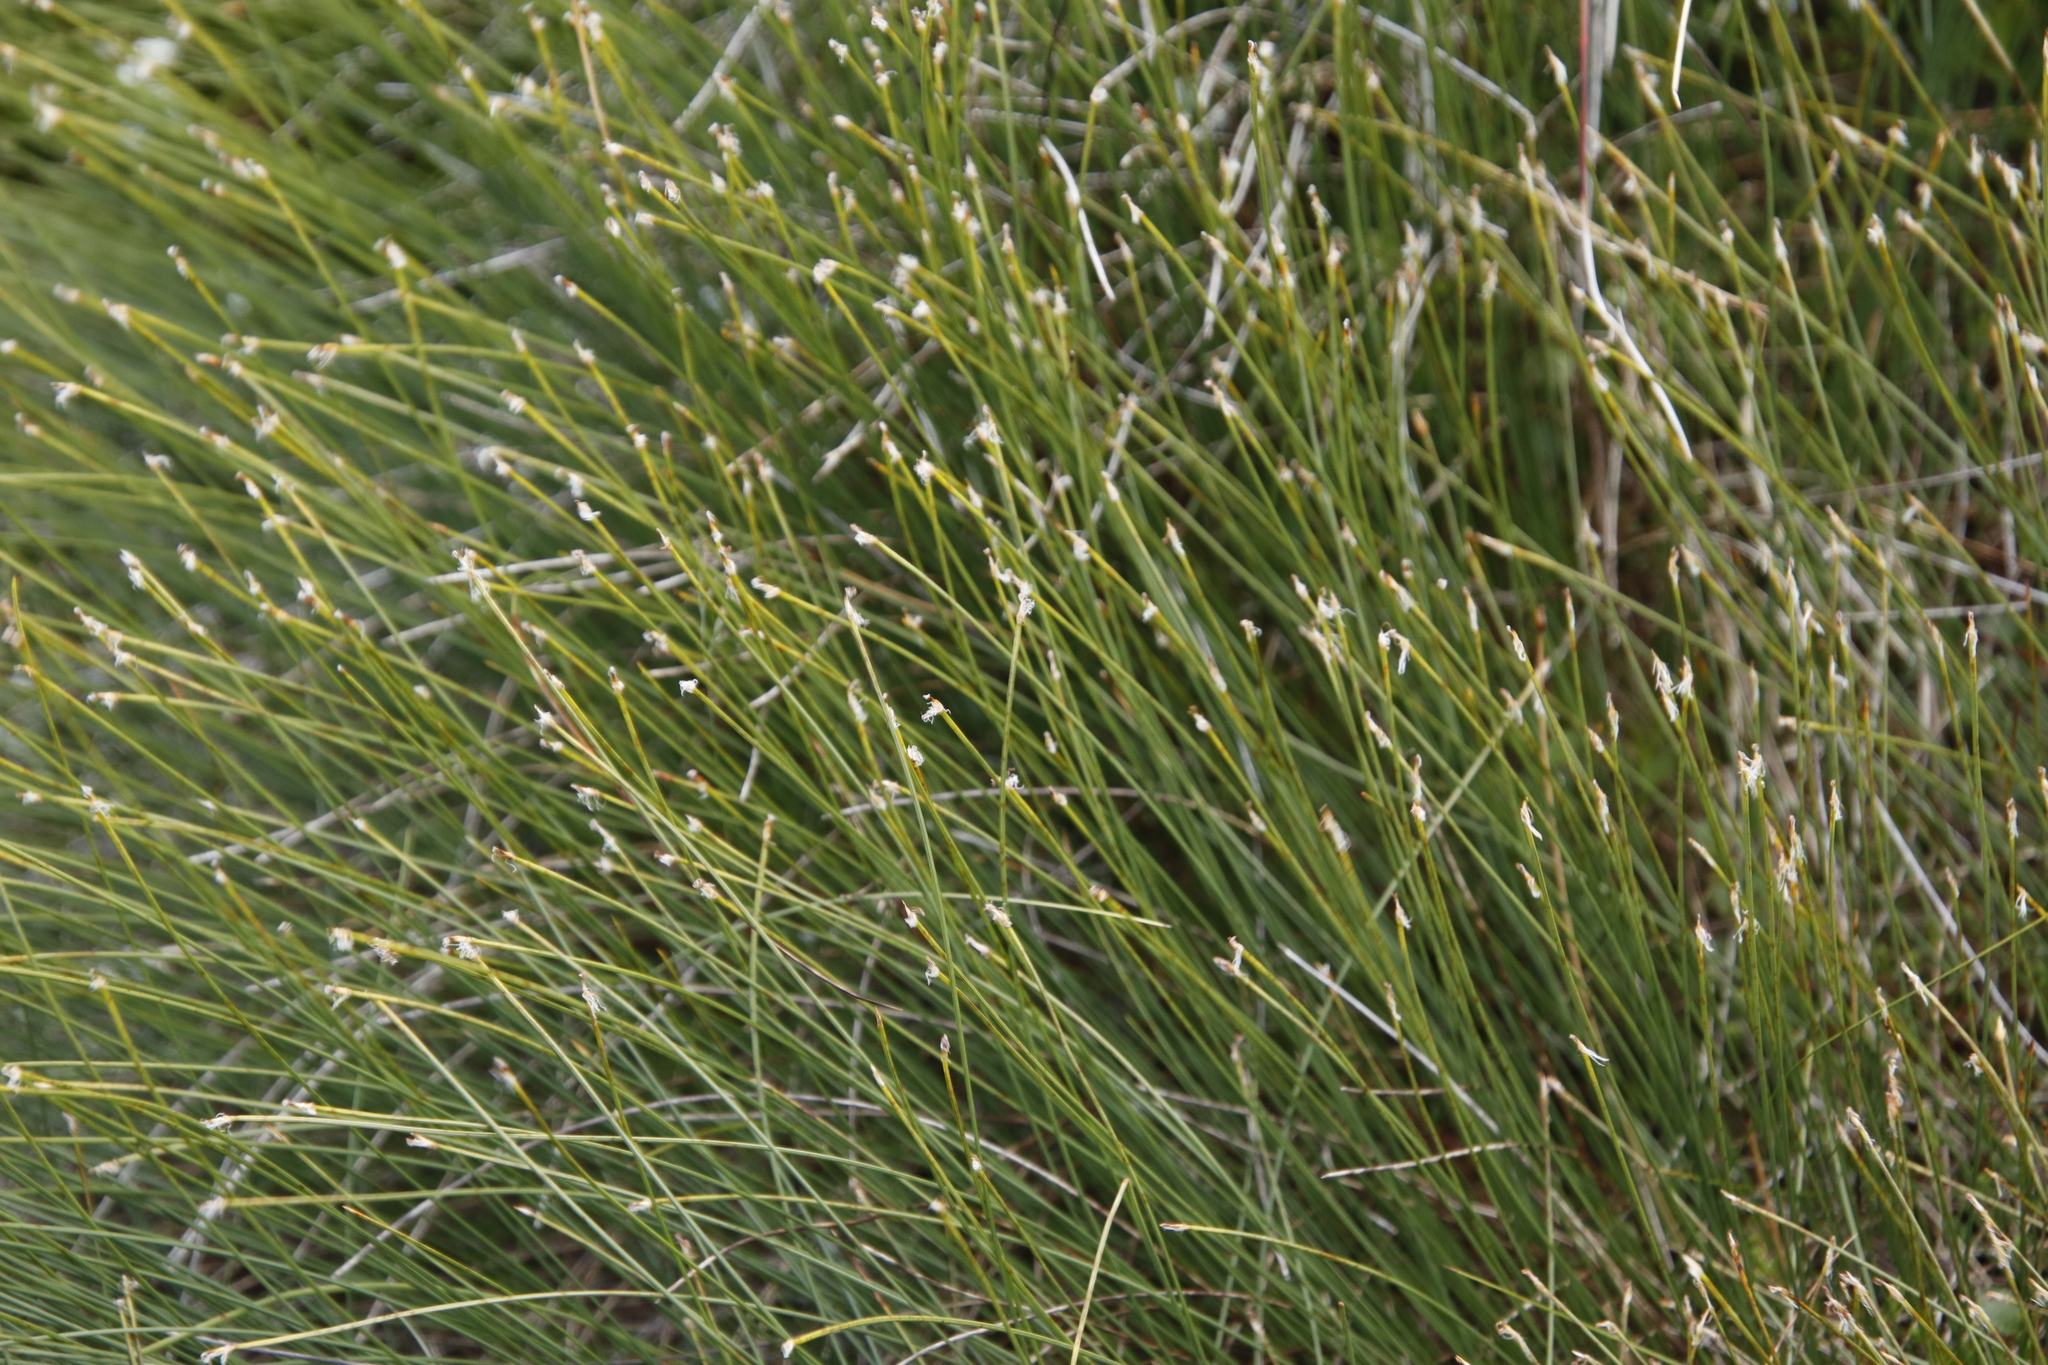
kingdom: Plantae
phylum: Tracheophyta
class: Liliopsida
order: Poales
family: Cyperaceae
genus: Trichophorum
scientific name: Trichophorum cespitosum
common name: Cespitose bulrush
